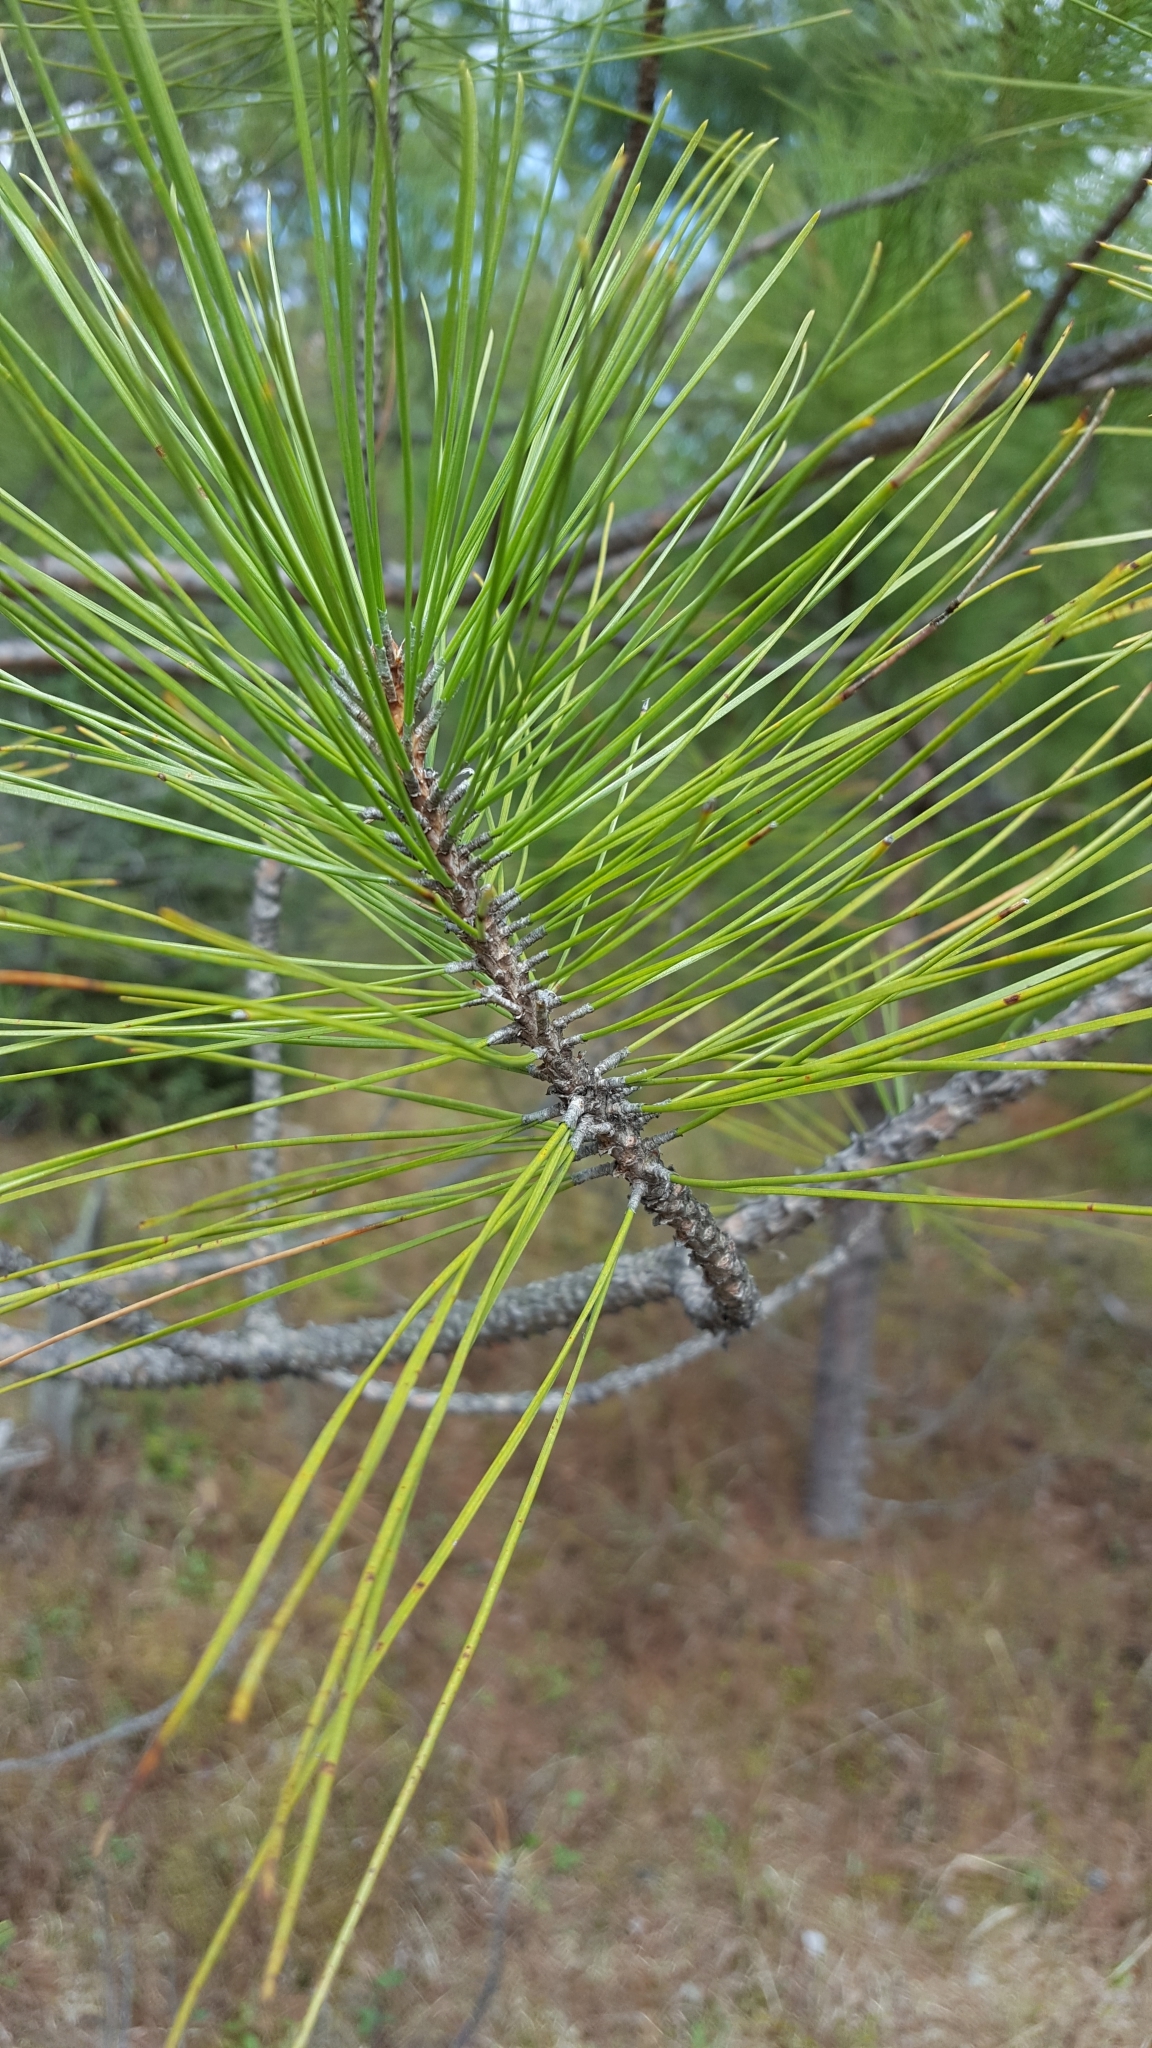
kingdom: Plantae
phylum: Tracheophyta
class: Pinopsida
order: Pinales
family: Pinaceae
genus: Pinus
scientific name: Pinus resinosa
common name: Norway pine
